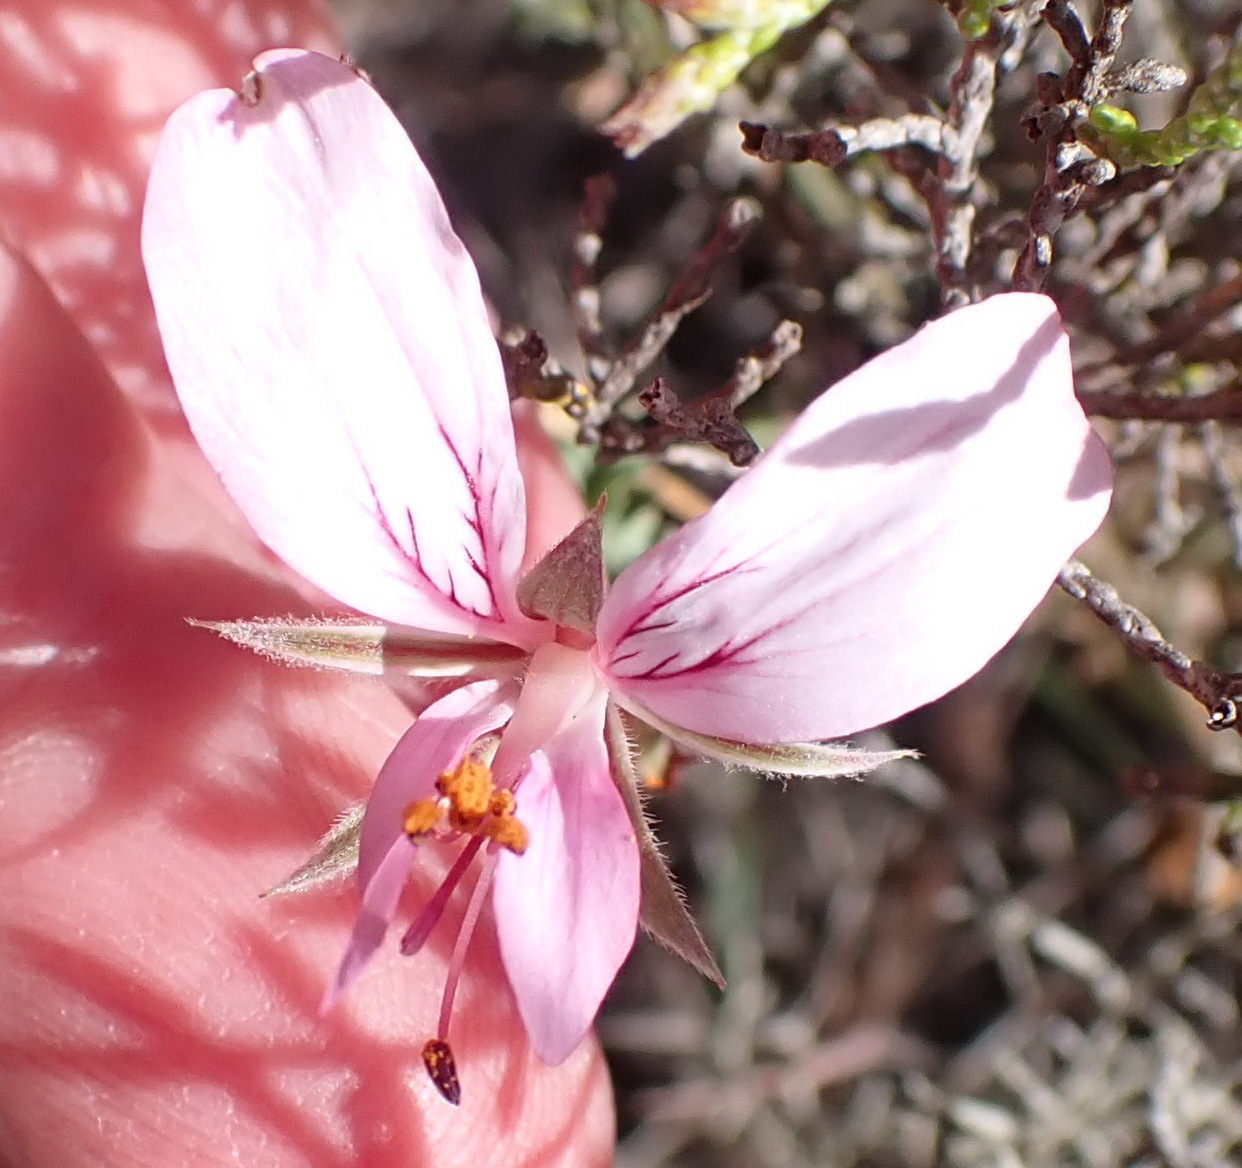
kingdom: Plantae
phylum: Tracheophyta
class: Magnoliopsida
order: Geraniales
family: Geraniaceae
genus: Pelargonium
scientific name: Pelargonium caucalifolium
